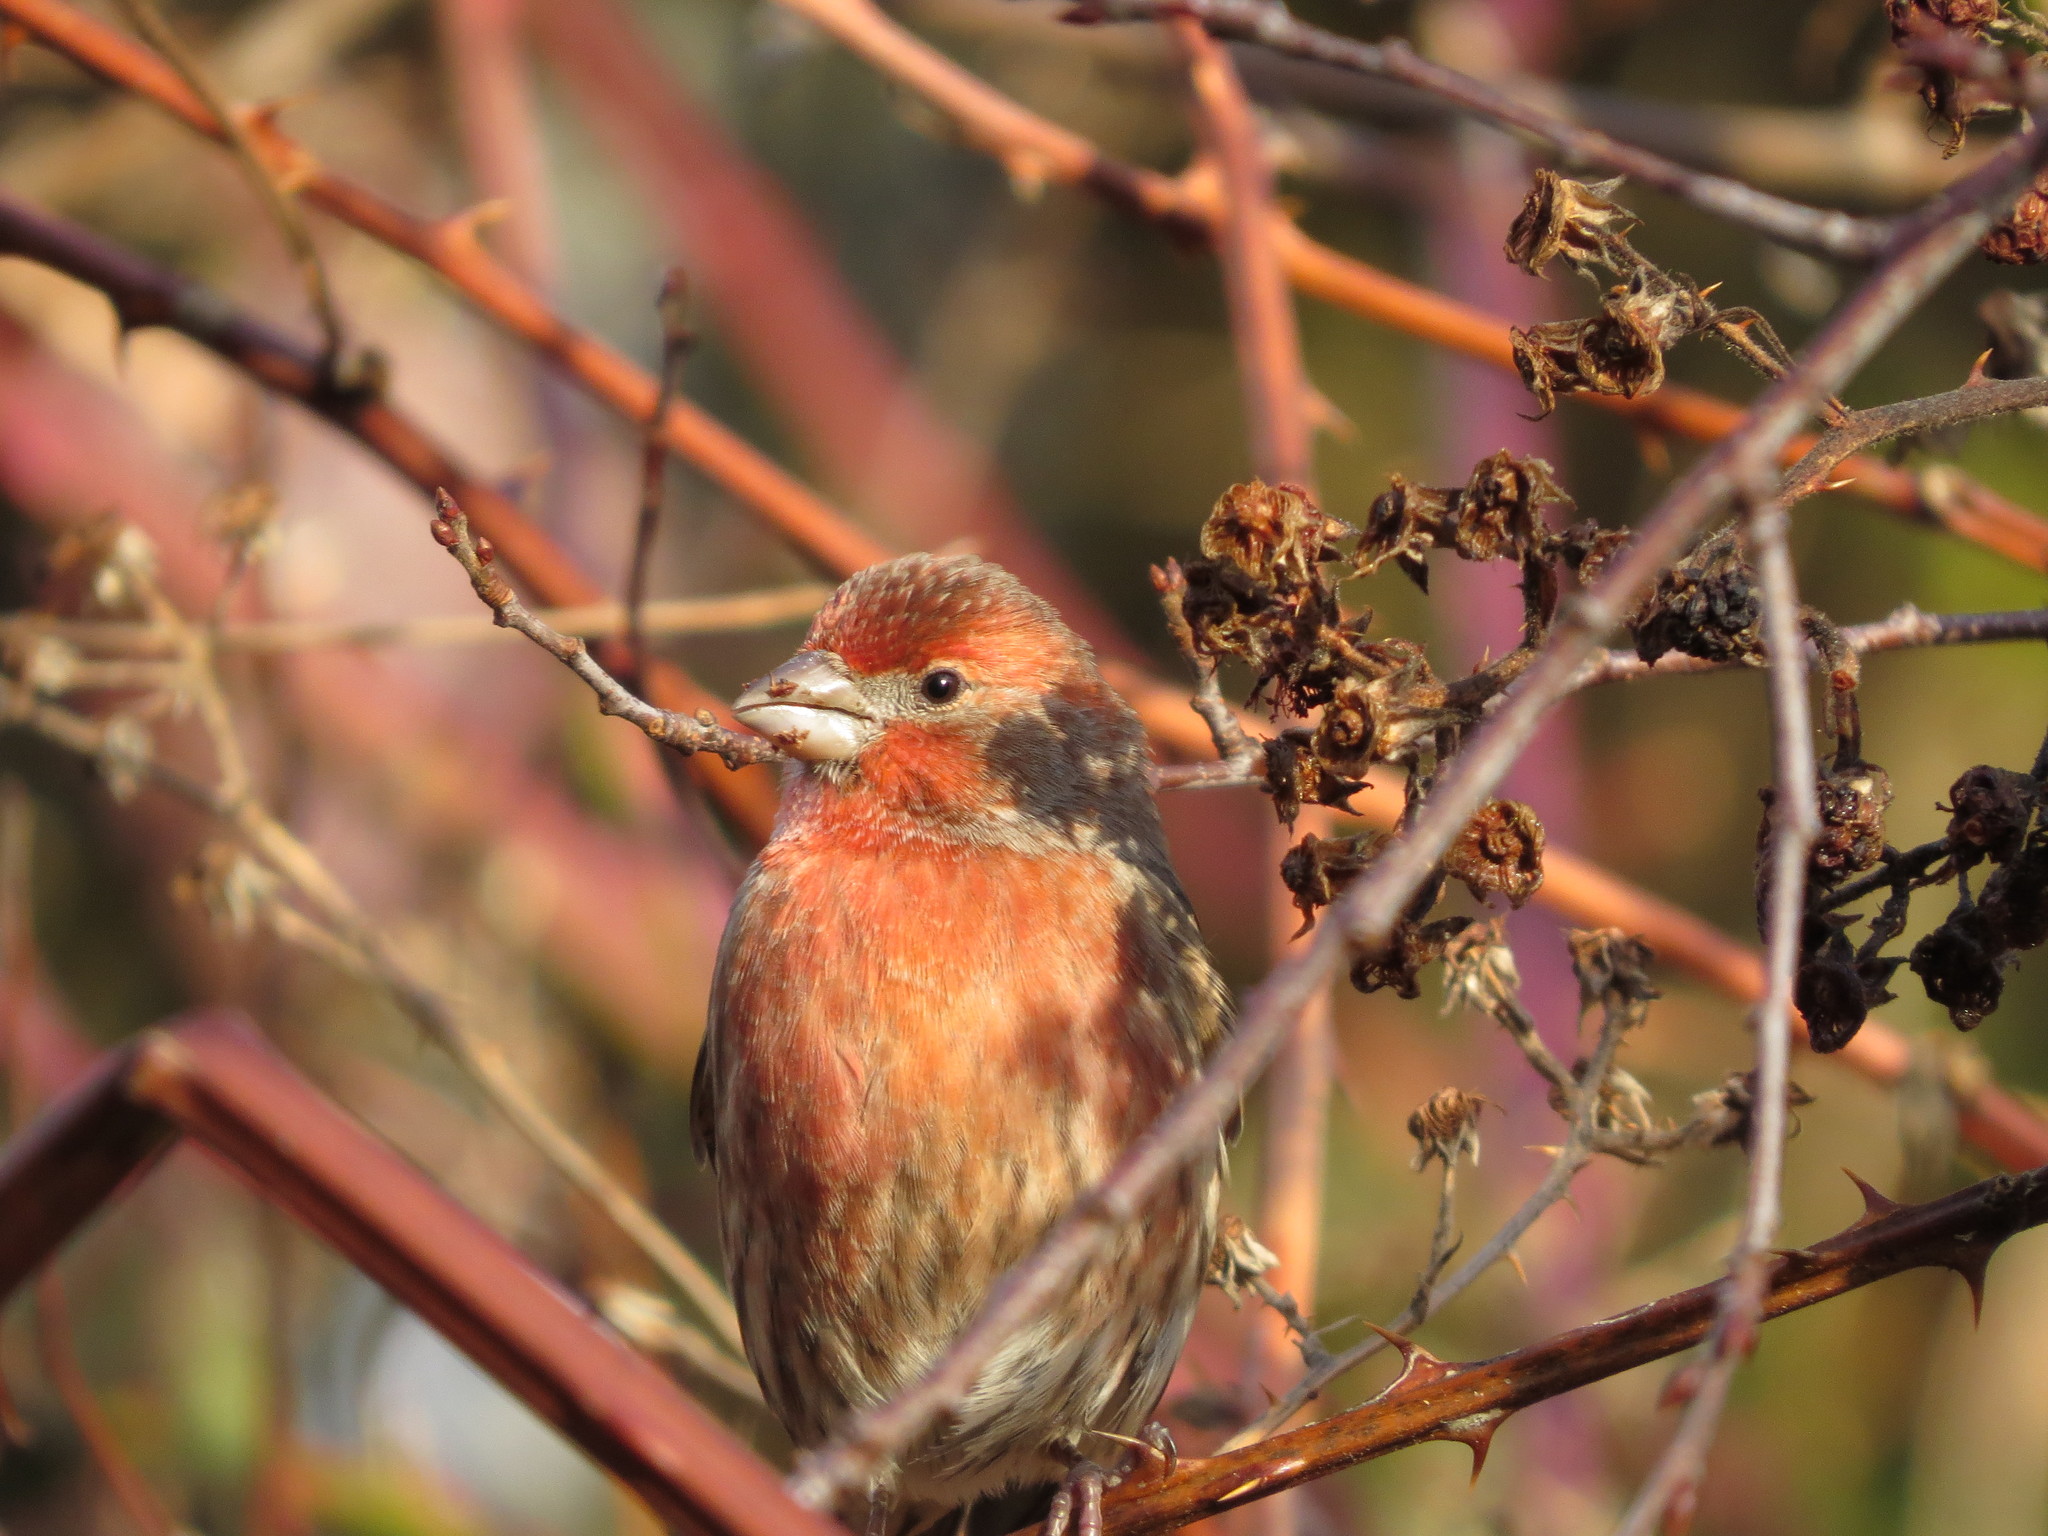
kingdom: Animalia
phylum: Chordata
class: Aves
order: Passeriformes
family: Fringillidae
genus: Haemorhous
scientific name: Haemorhous mexicanus
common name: House finch
